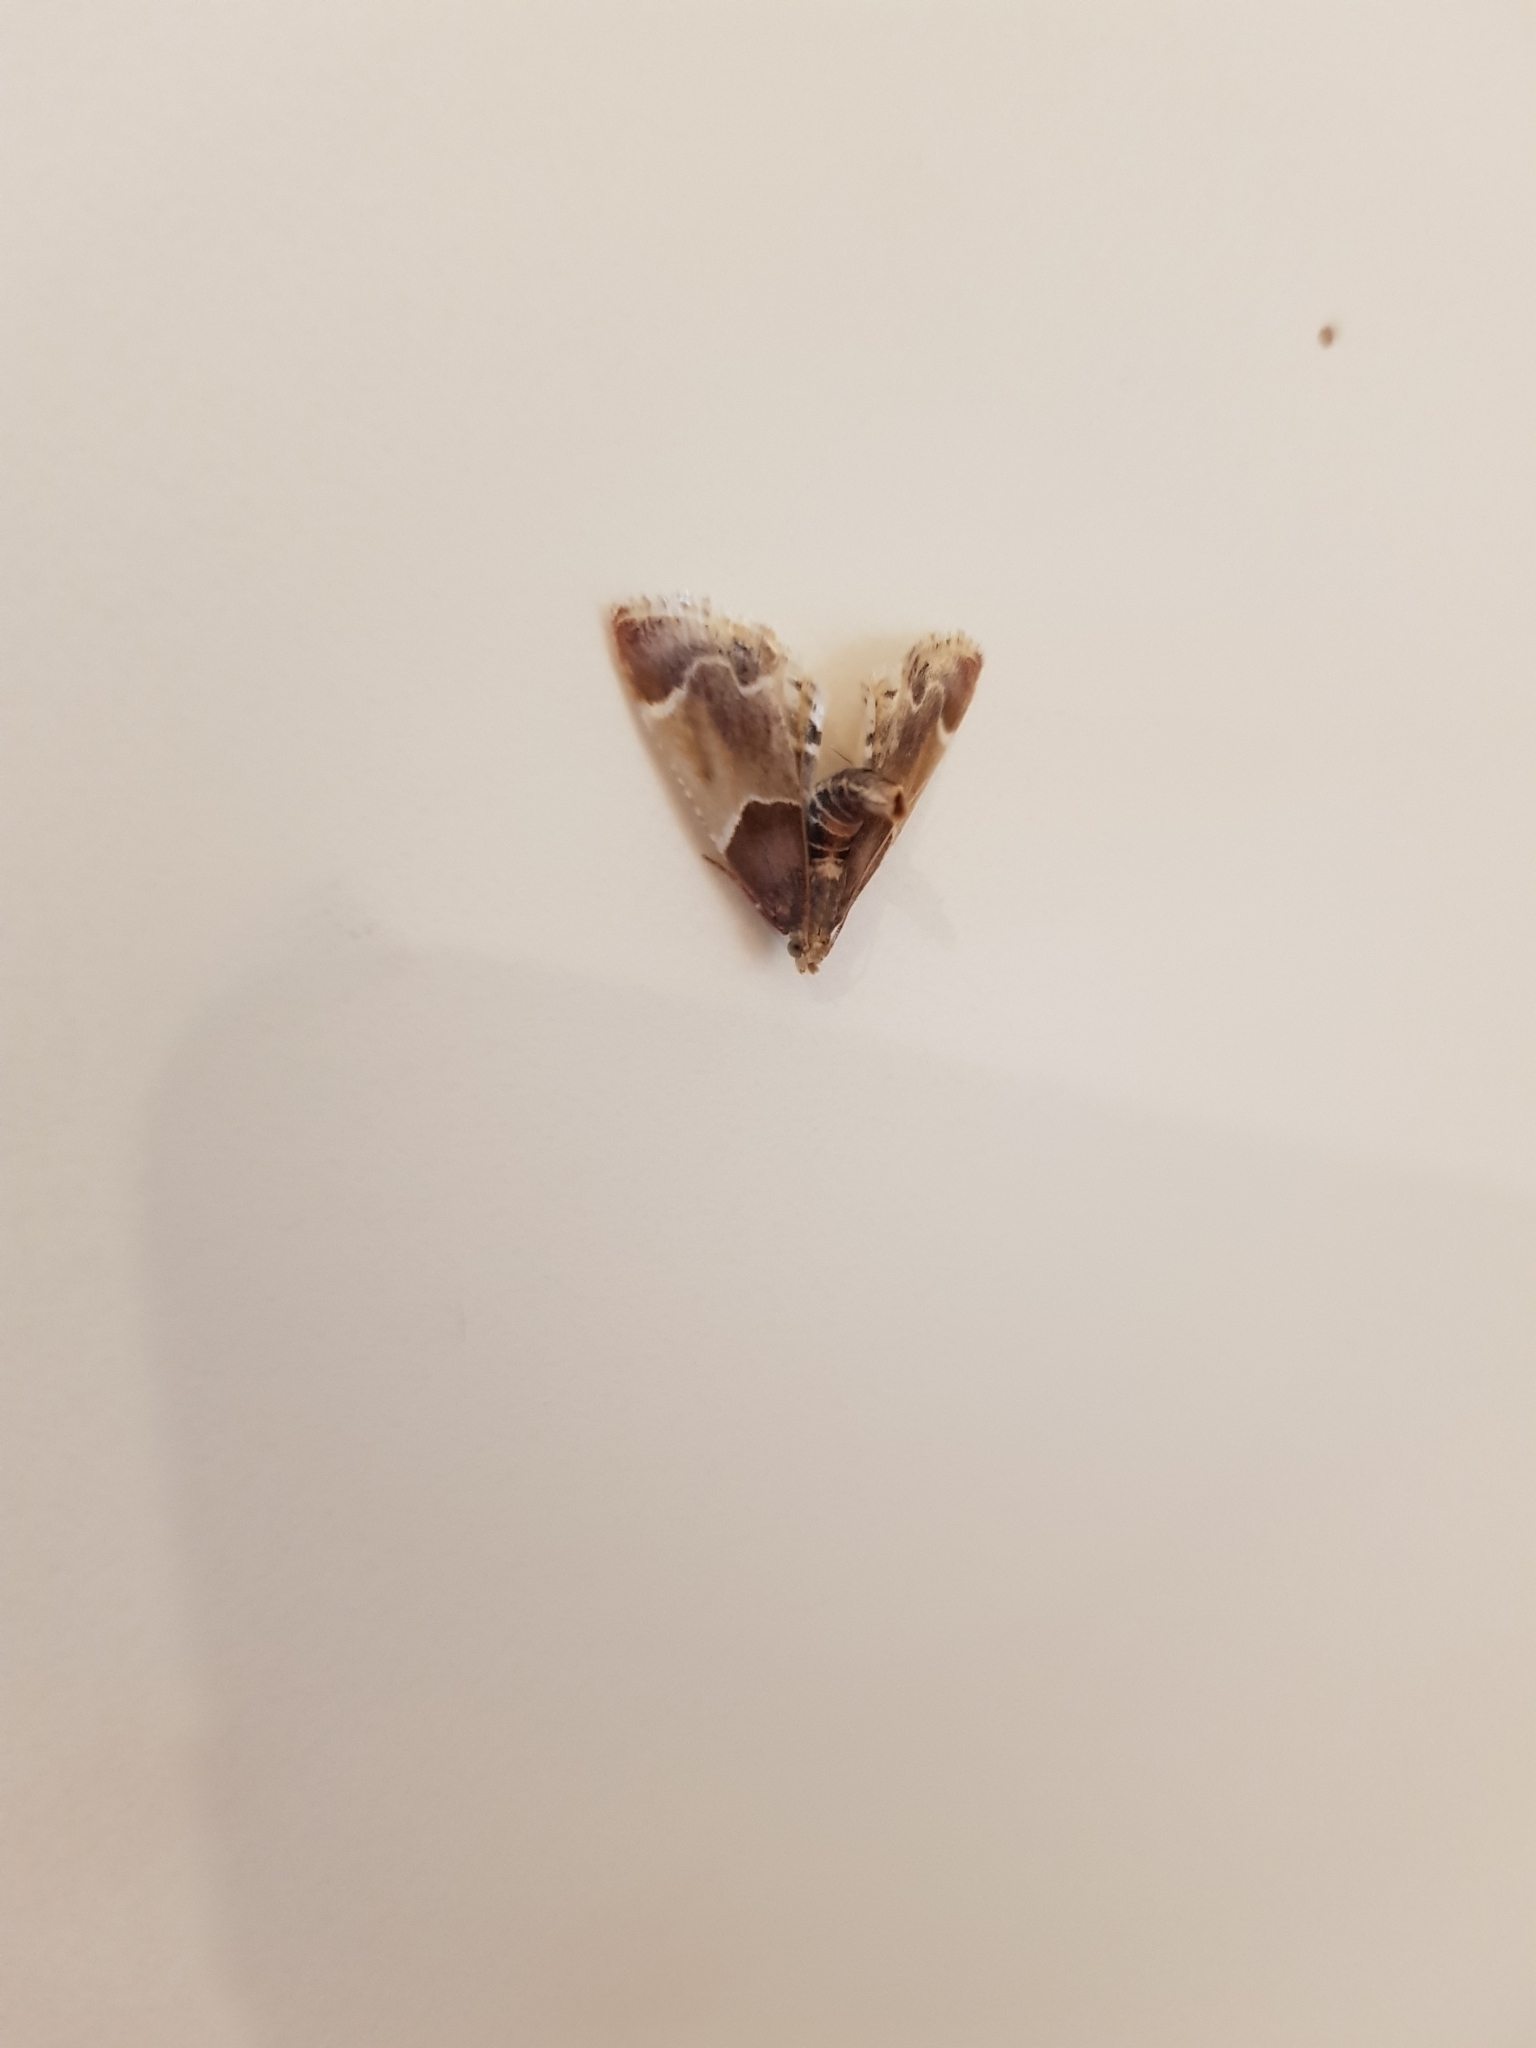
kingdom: Animalia
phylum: Arthropoda
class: Insecta
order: Lepidoptera
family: Pyralidae
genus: Pyralis
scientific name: Pyralis farinalis
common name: Meal moth
